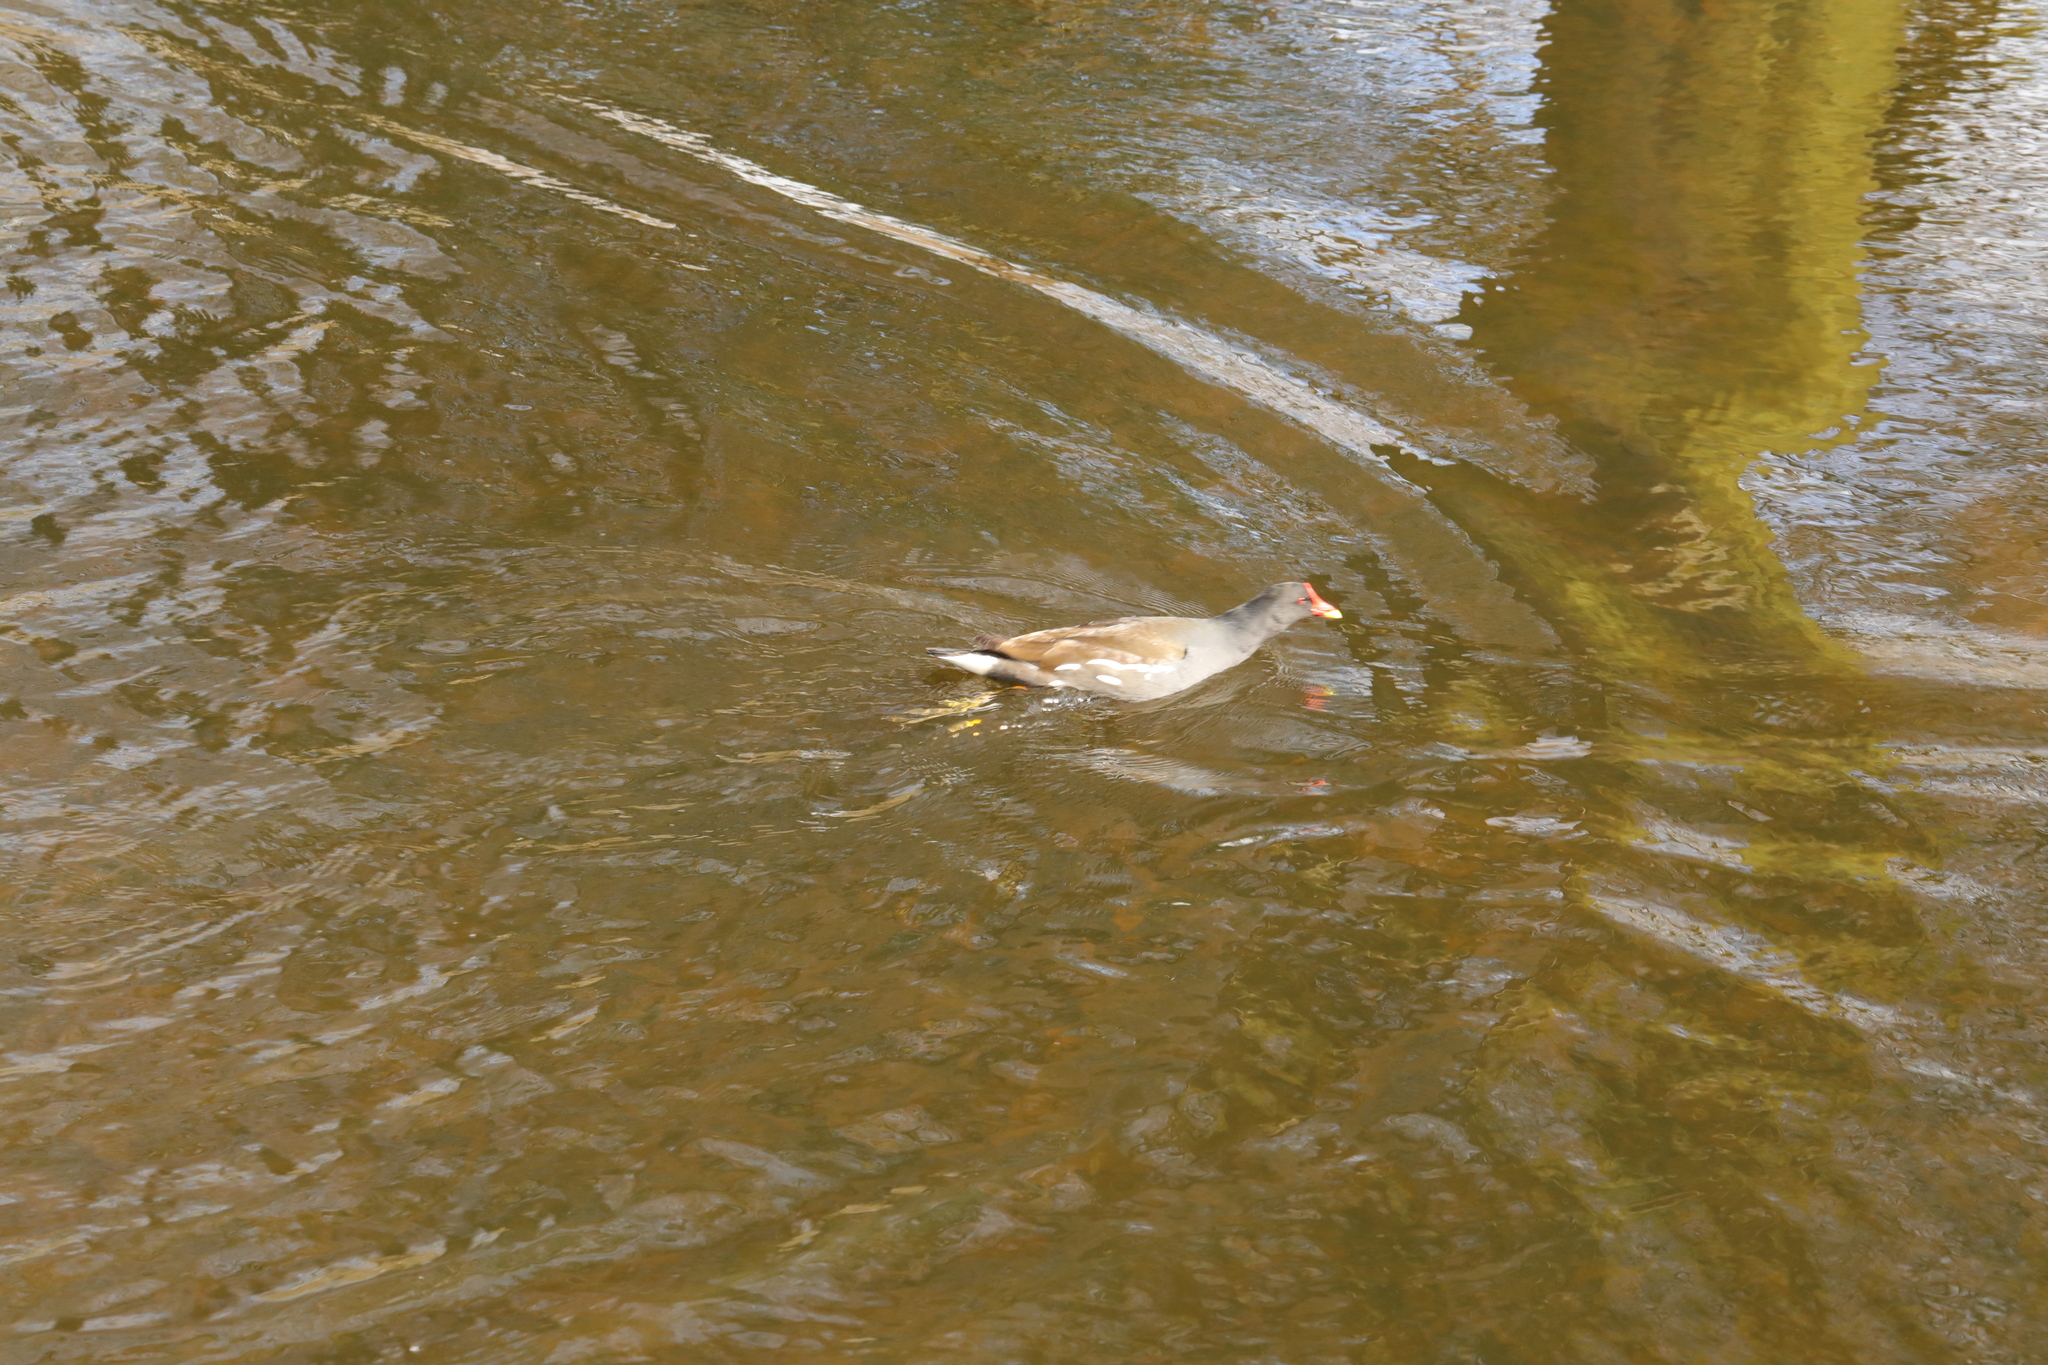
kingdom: Animalia
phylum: Chordata
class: Aves
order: Gruiformes
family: Rallidae
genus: Gallinula
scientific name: Gallinula chloropus
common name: Common moorhen
